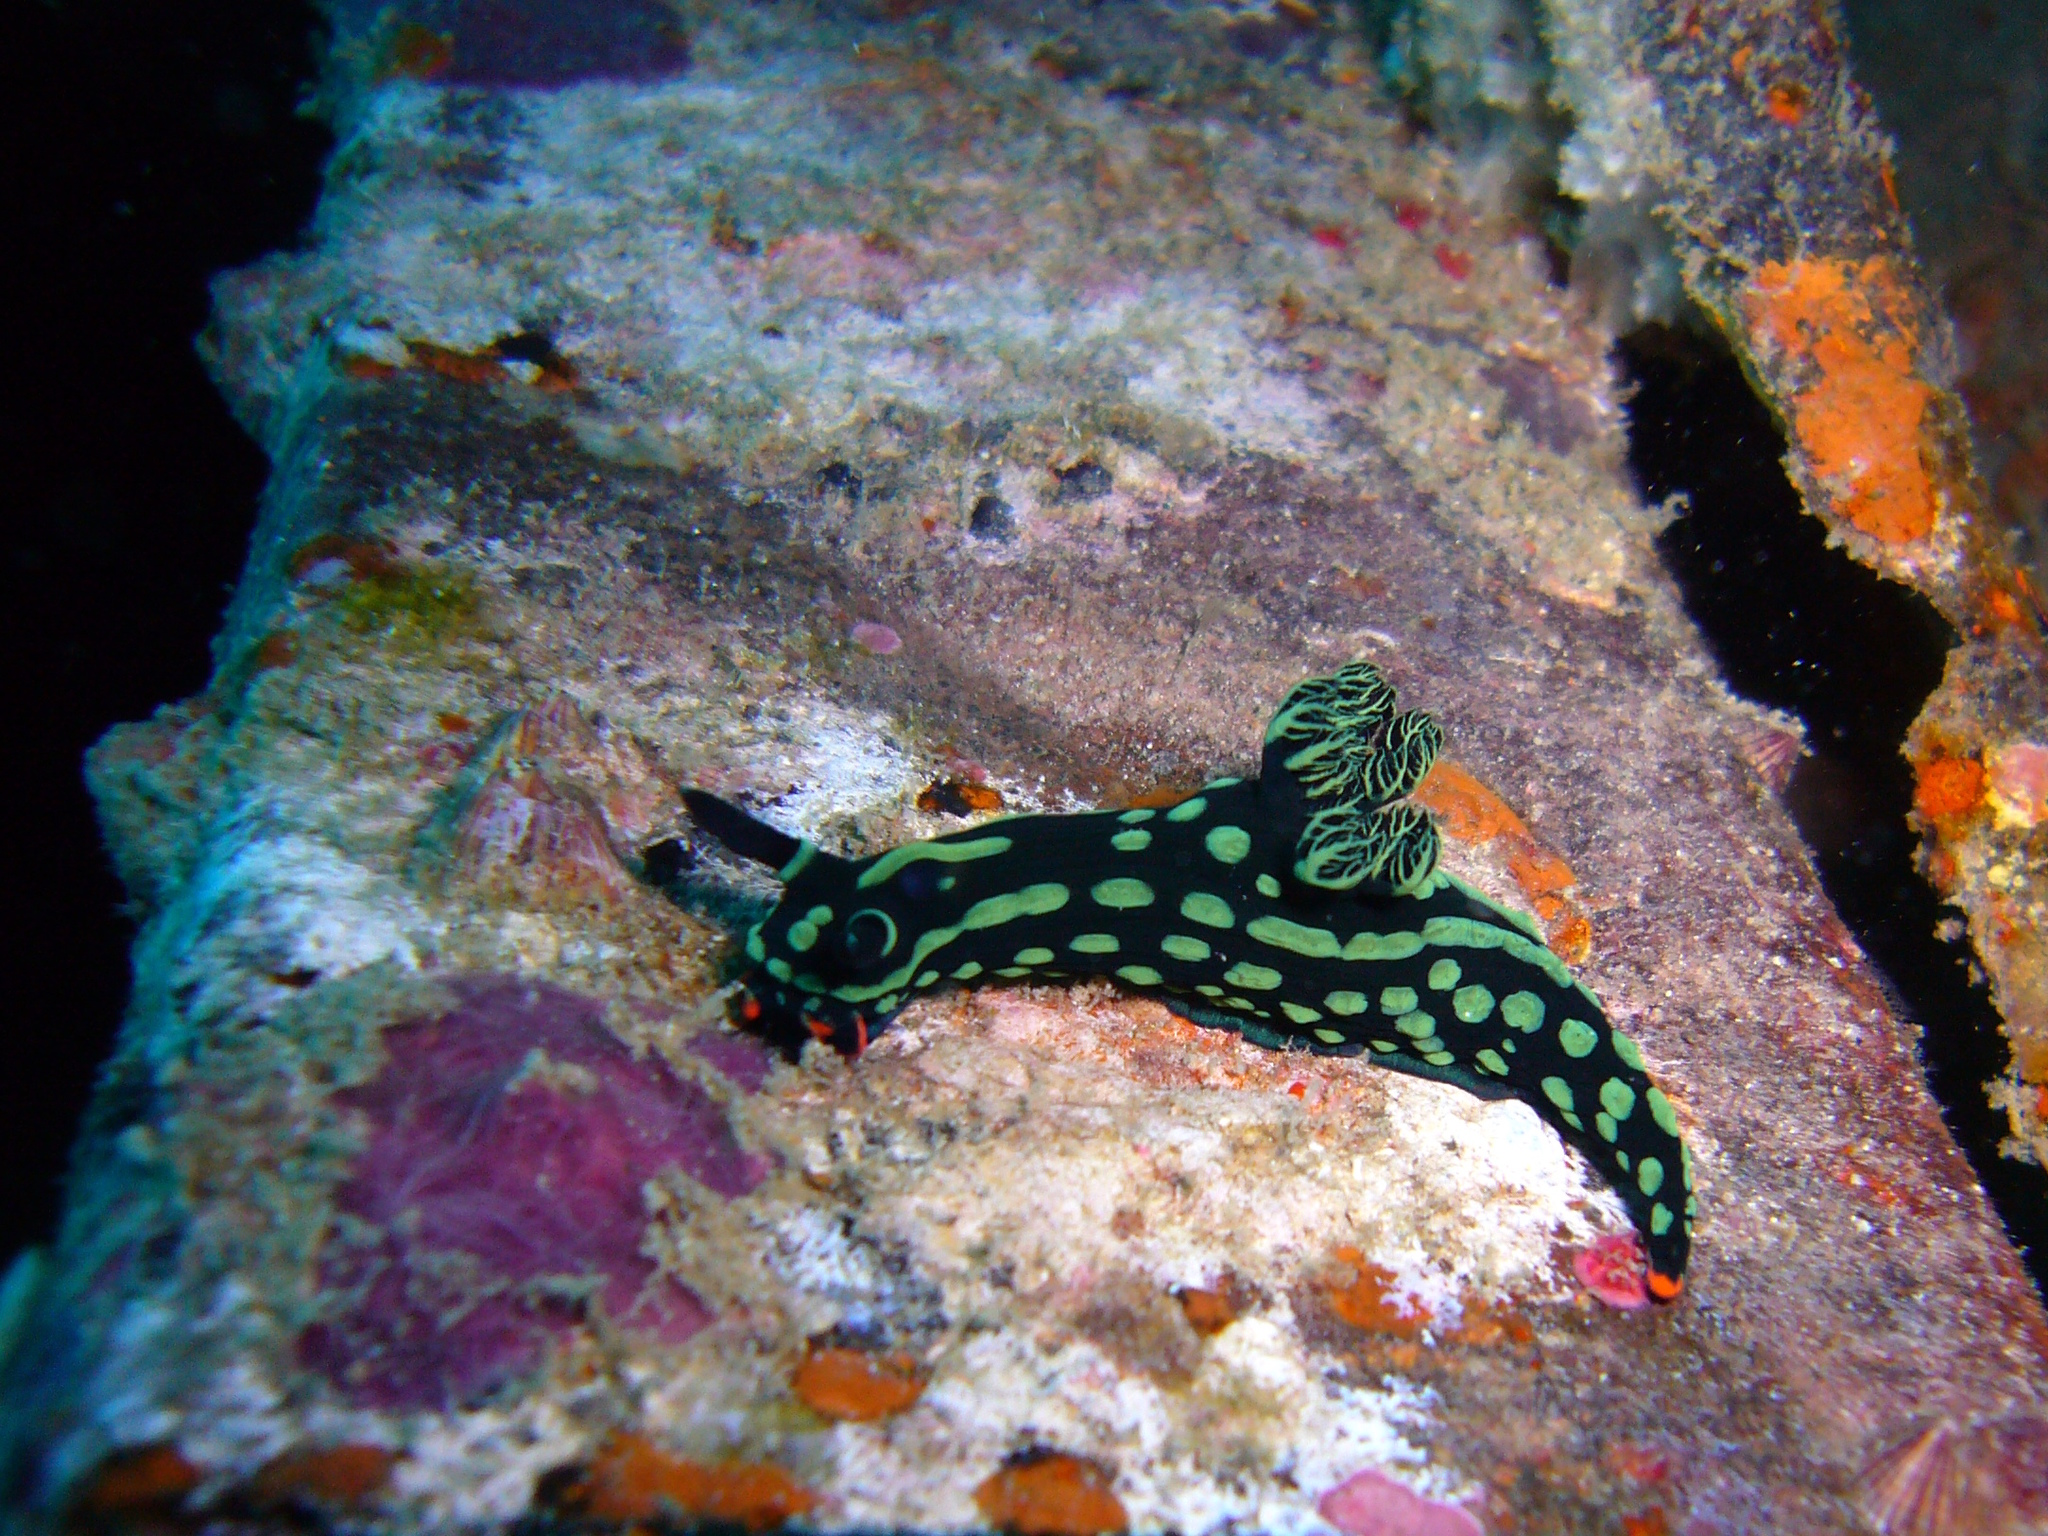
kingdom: Animalia
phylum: Mollusca
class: Gastropoda
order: Nudibranchia
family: Polyceridae
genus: Nembrotha
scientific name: Nembrotha kubaryana
